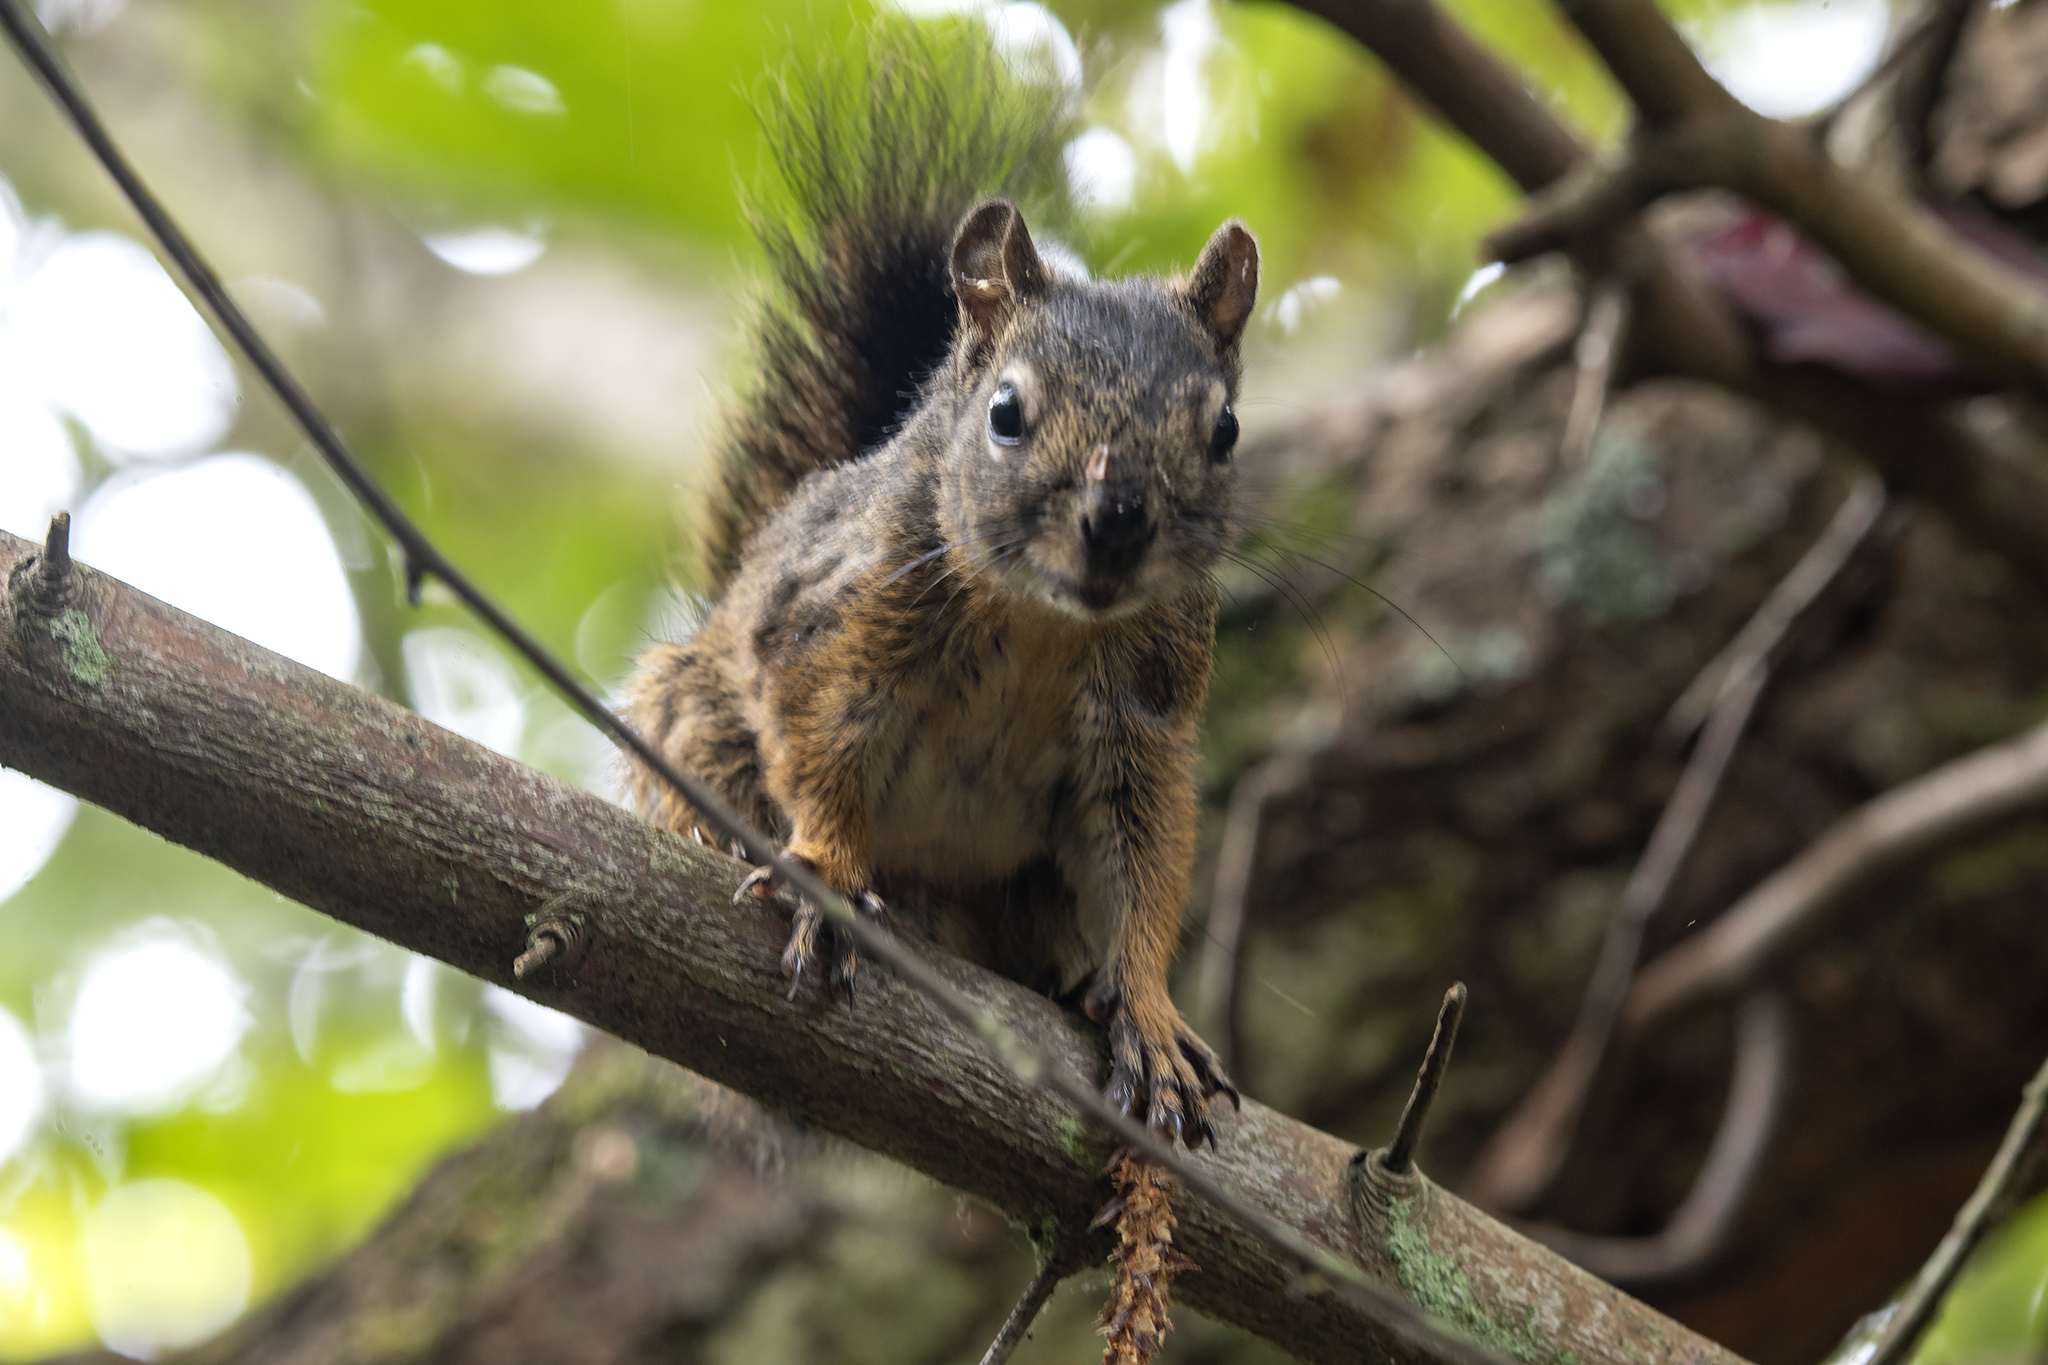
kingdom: Animalia
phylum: Chordata
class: Mammalia
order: Rodentia
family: Sciuridae
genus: Tamiasciurus
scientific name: Tamiasciurus hudsonicus
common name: Red squirrel
